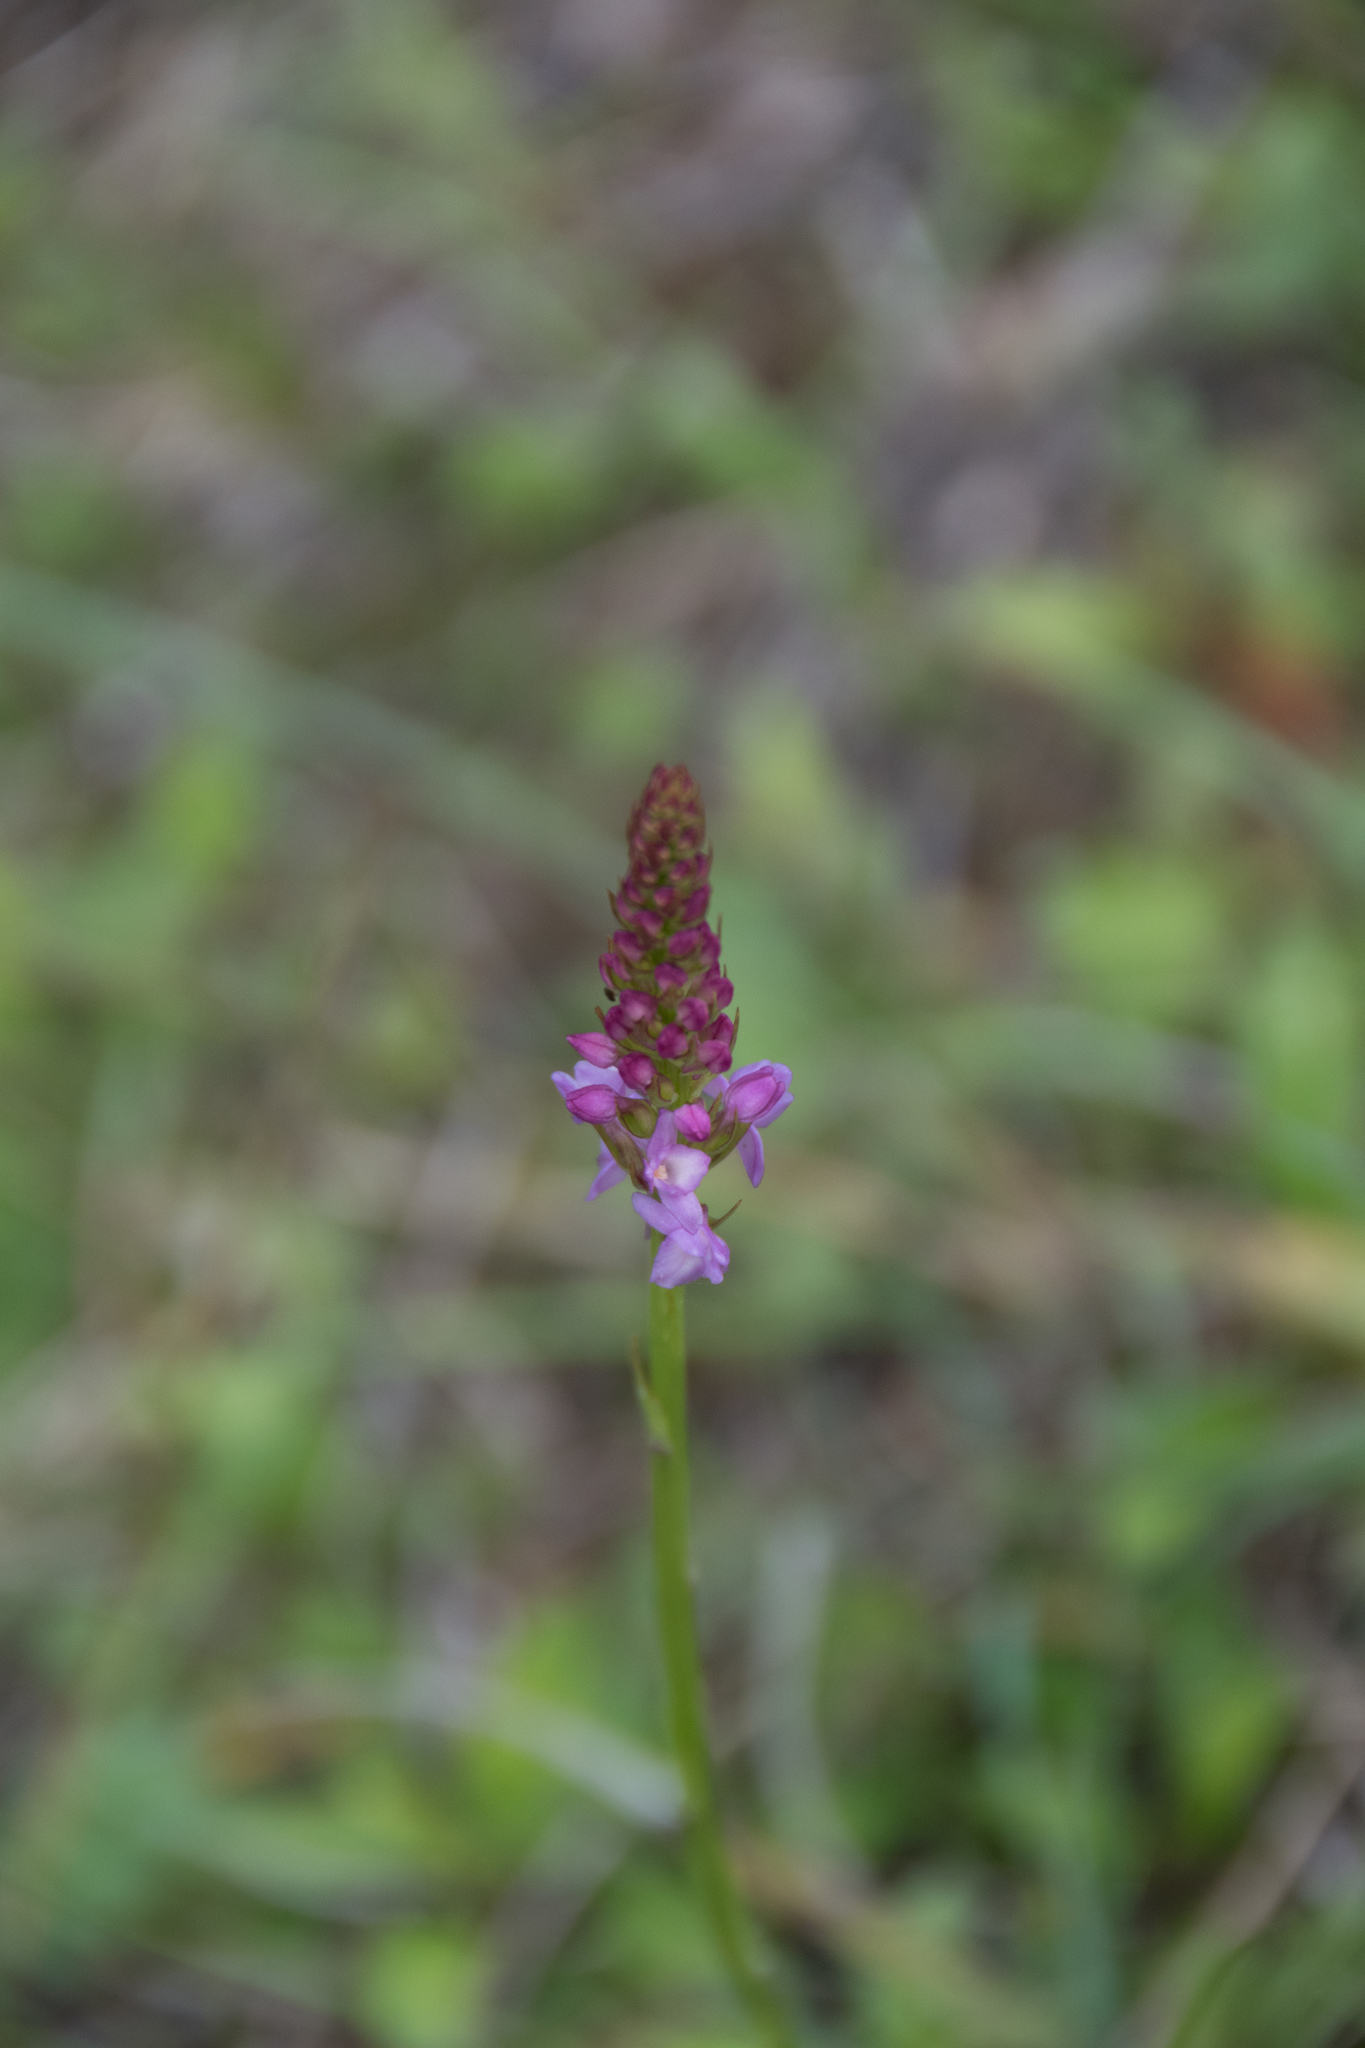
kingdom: Plantae
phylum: Tracheophyta
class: Liliopsida
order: Asparagales
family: Orchidaceae
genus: Gymnadenia
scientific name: Gymnadenia conopsea
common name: Fragrant orchid
